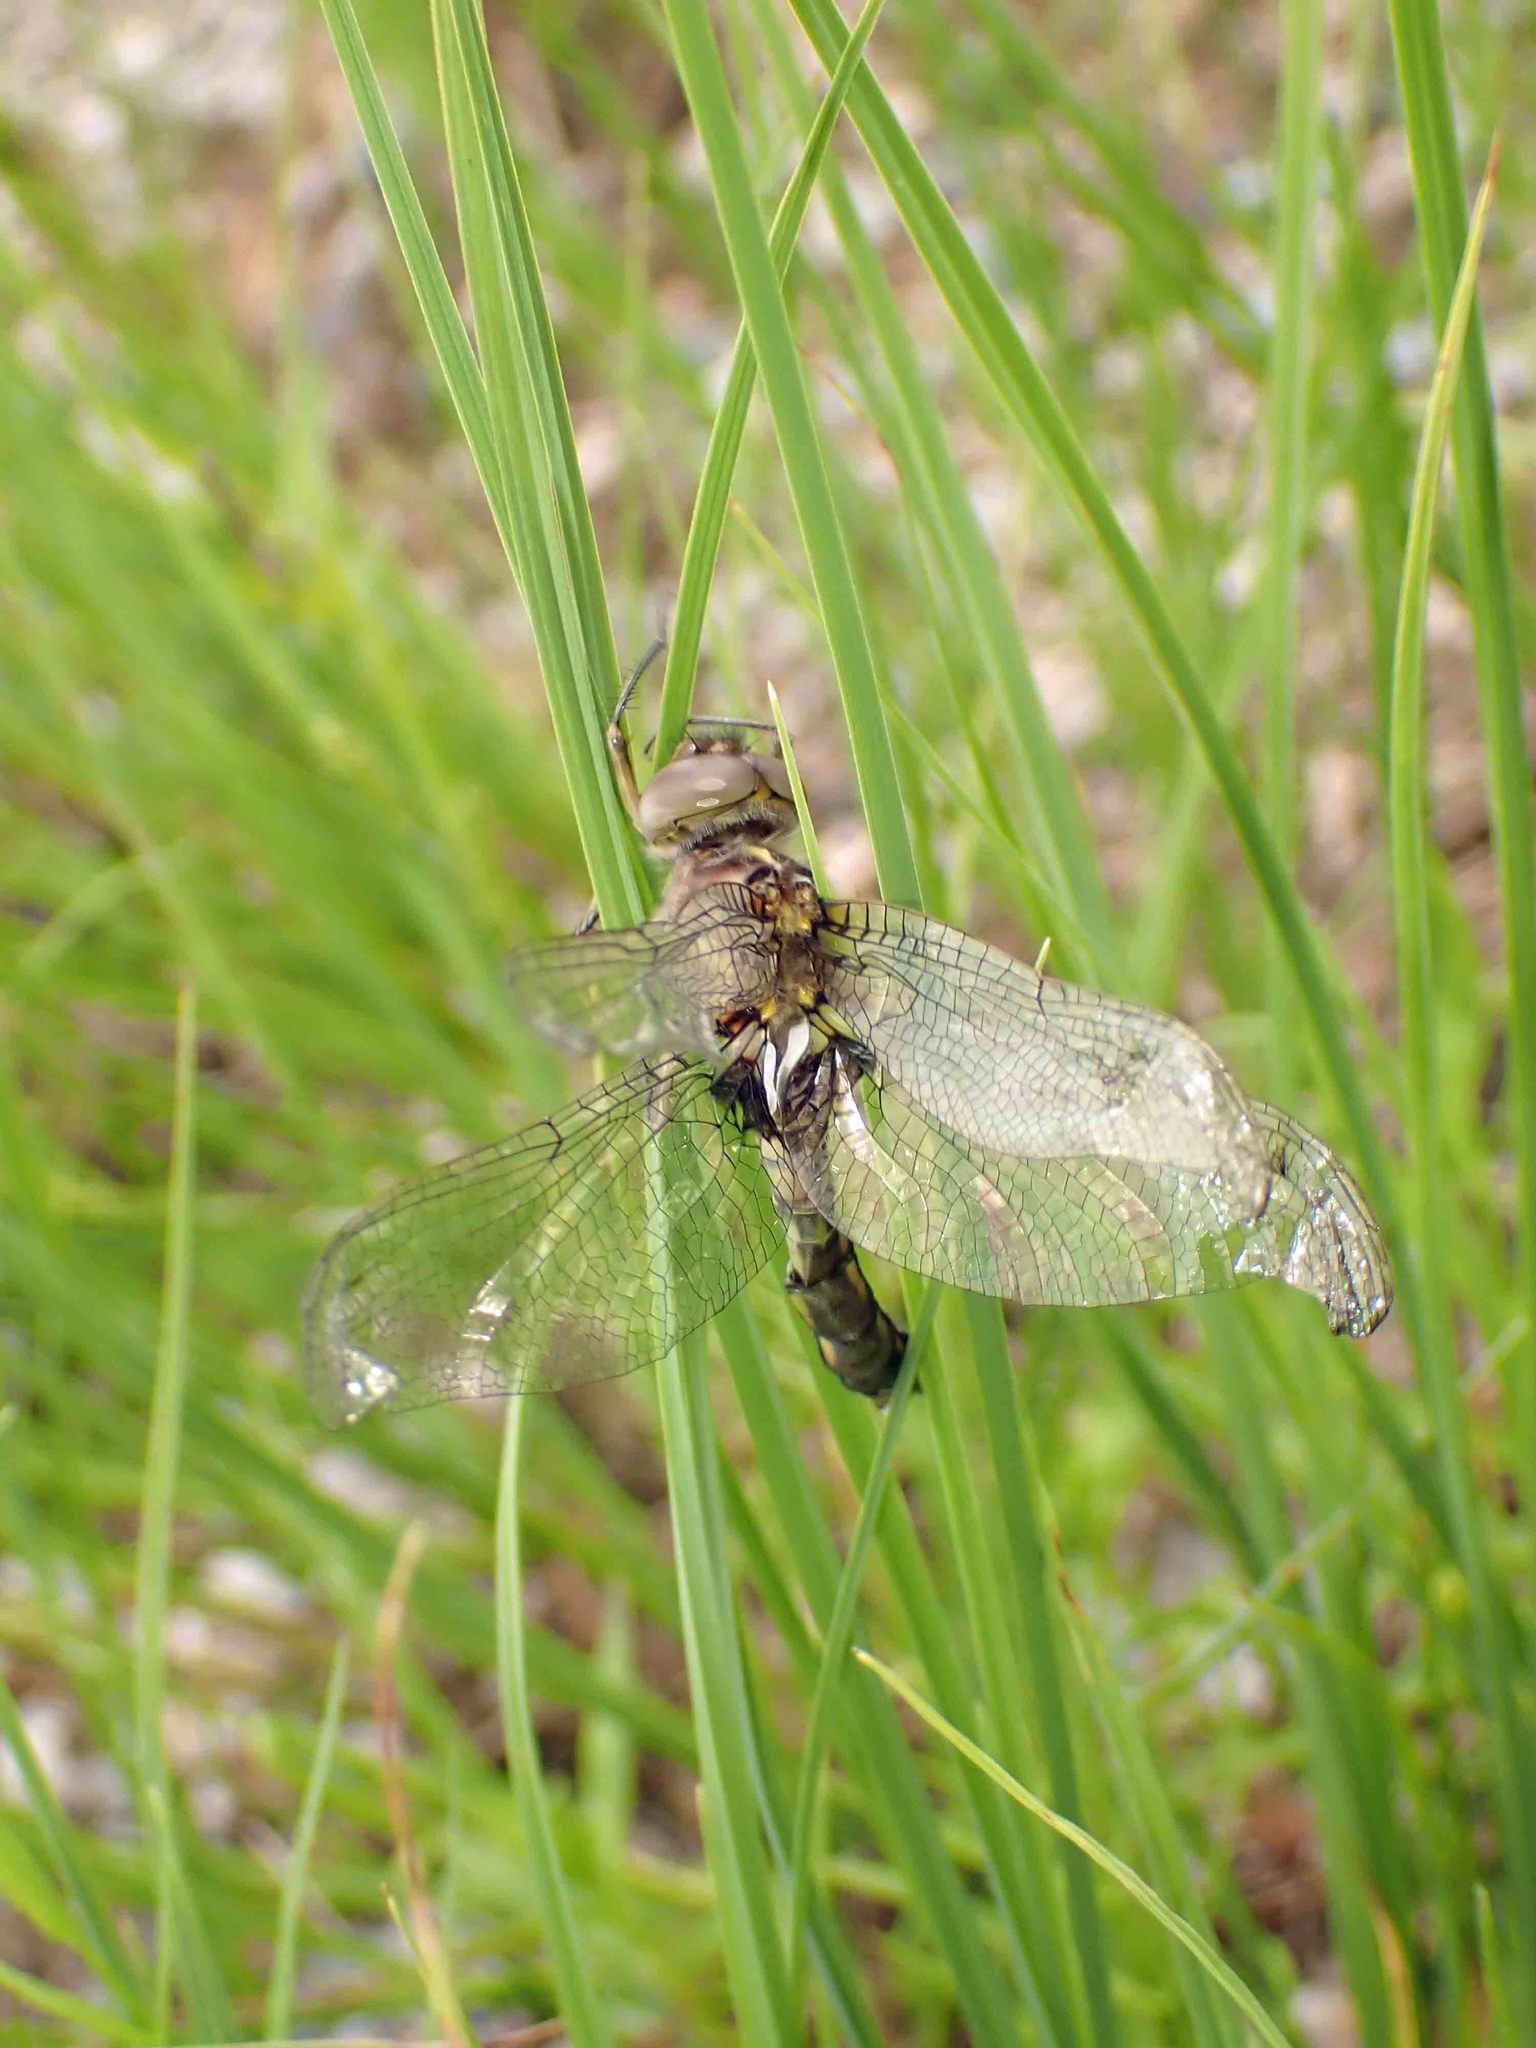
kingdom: Animalia
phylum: Arthropoda
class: Insecta
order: Odonata
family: Corduliidae
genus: Neurocordulia
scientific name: Neurocordulia yamaskanensis
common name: Stygian shadowdragon
